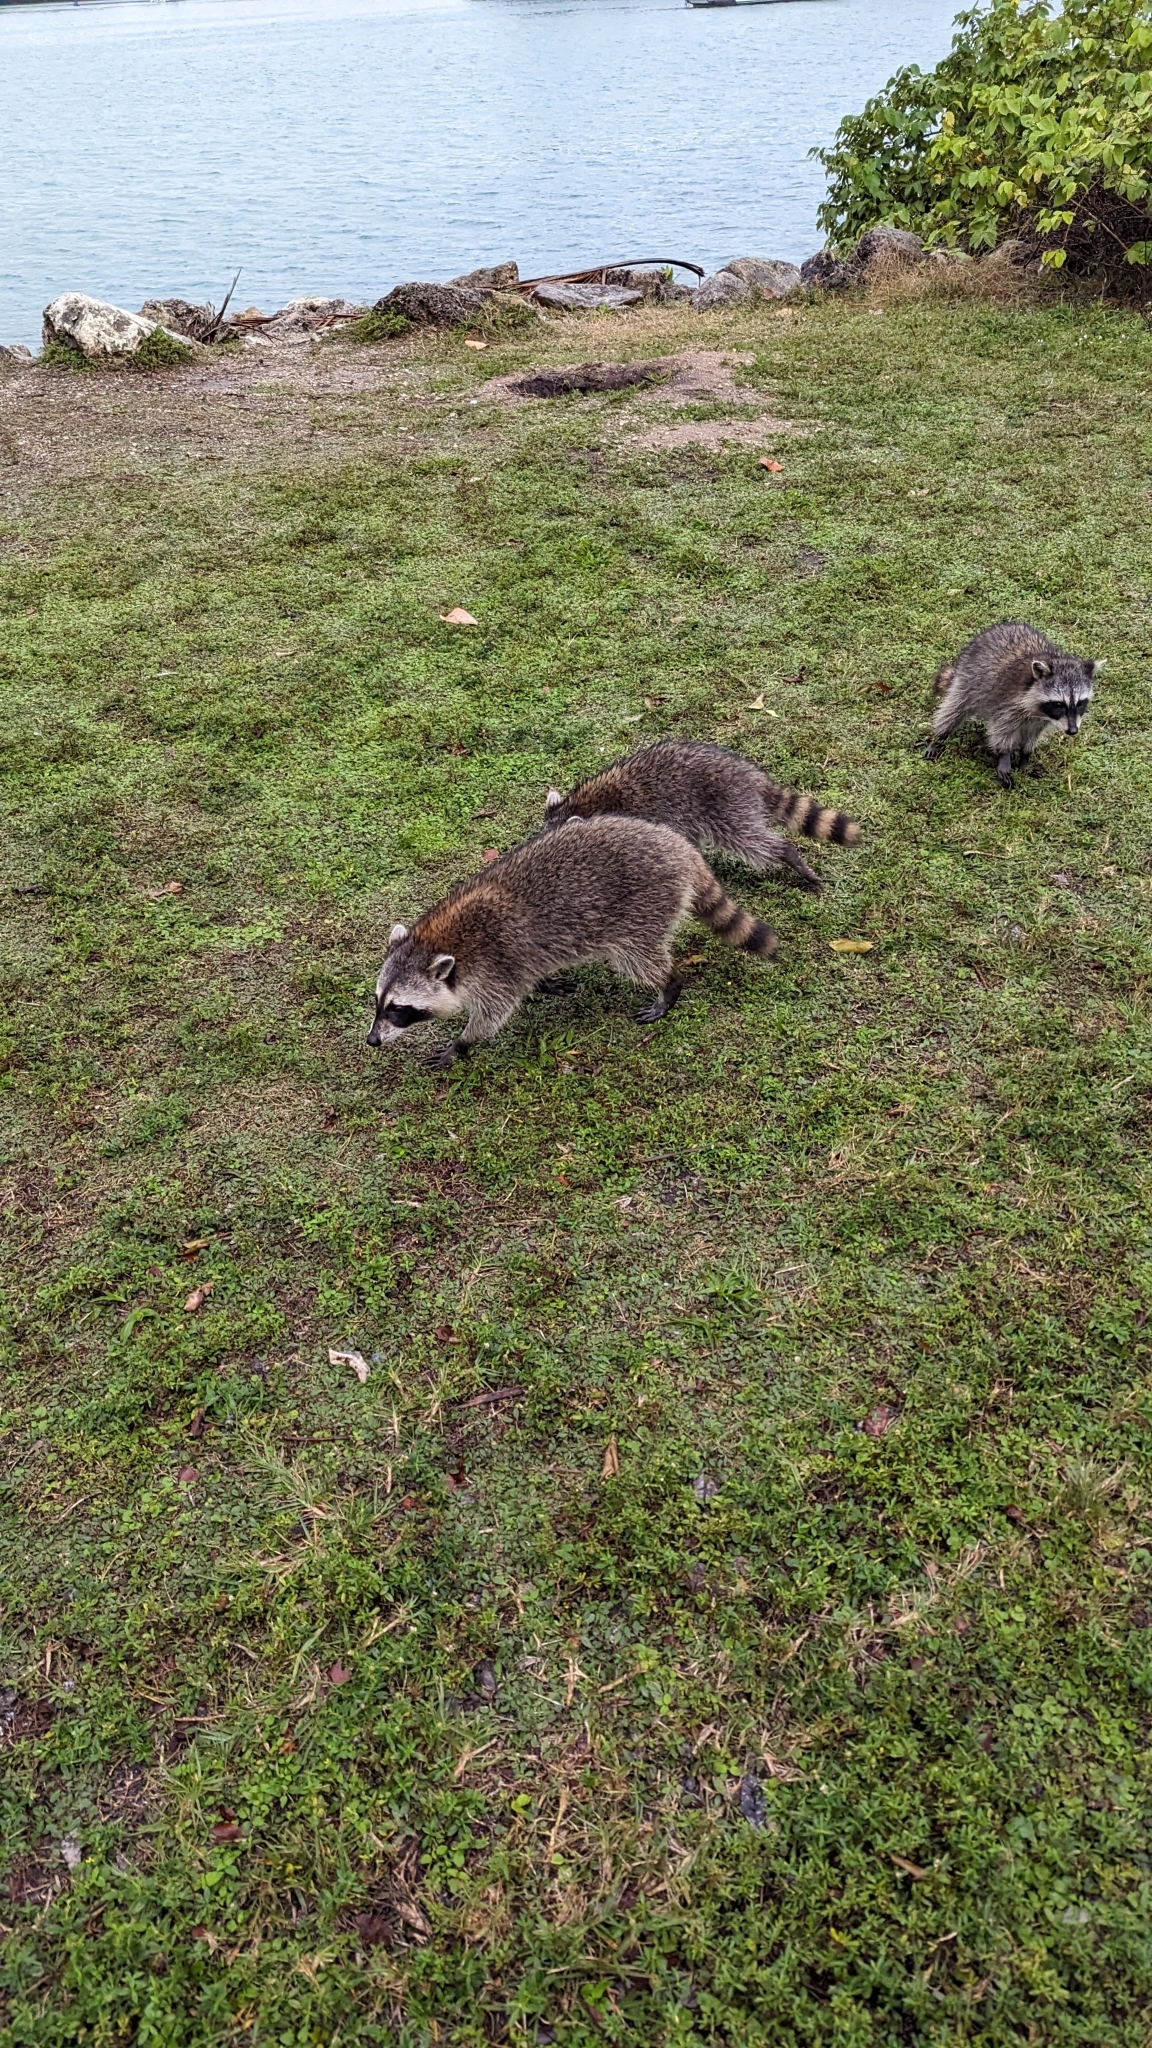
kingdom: Animalia
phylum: Chordata
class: Mammalia
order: Carnivora
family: Procyonidae
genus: Procyon
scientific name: Procyon lotor
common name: Raccoon
